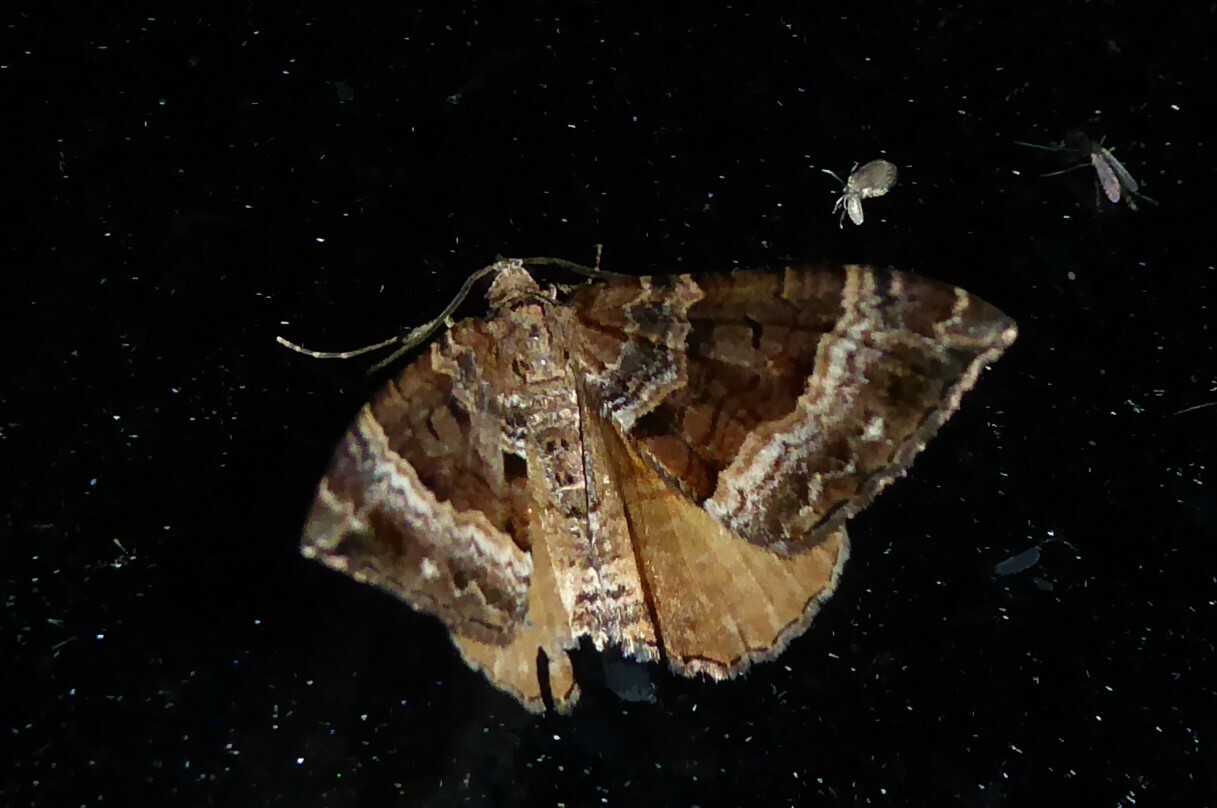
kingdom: Animalia
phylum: Arthropoda
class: Insecta
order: Lepidoptera
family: Geometridae
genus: Hydriomena
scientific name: Hydriomena deltoidata
